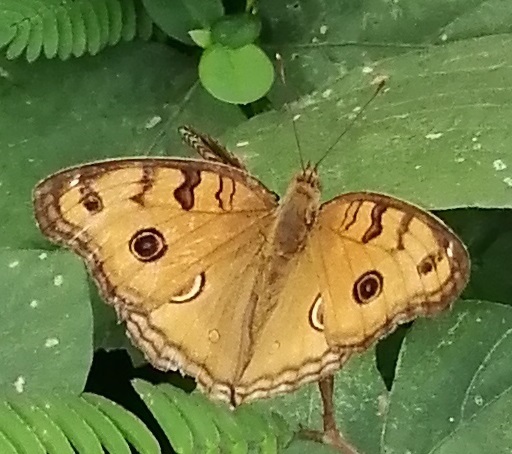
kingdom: Animalia
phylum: Arthropoda
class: Insecta
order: Lepidoptera
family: Nymphalidae
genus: Junonia
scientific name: Junonia almana
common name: Peacock pansy
